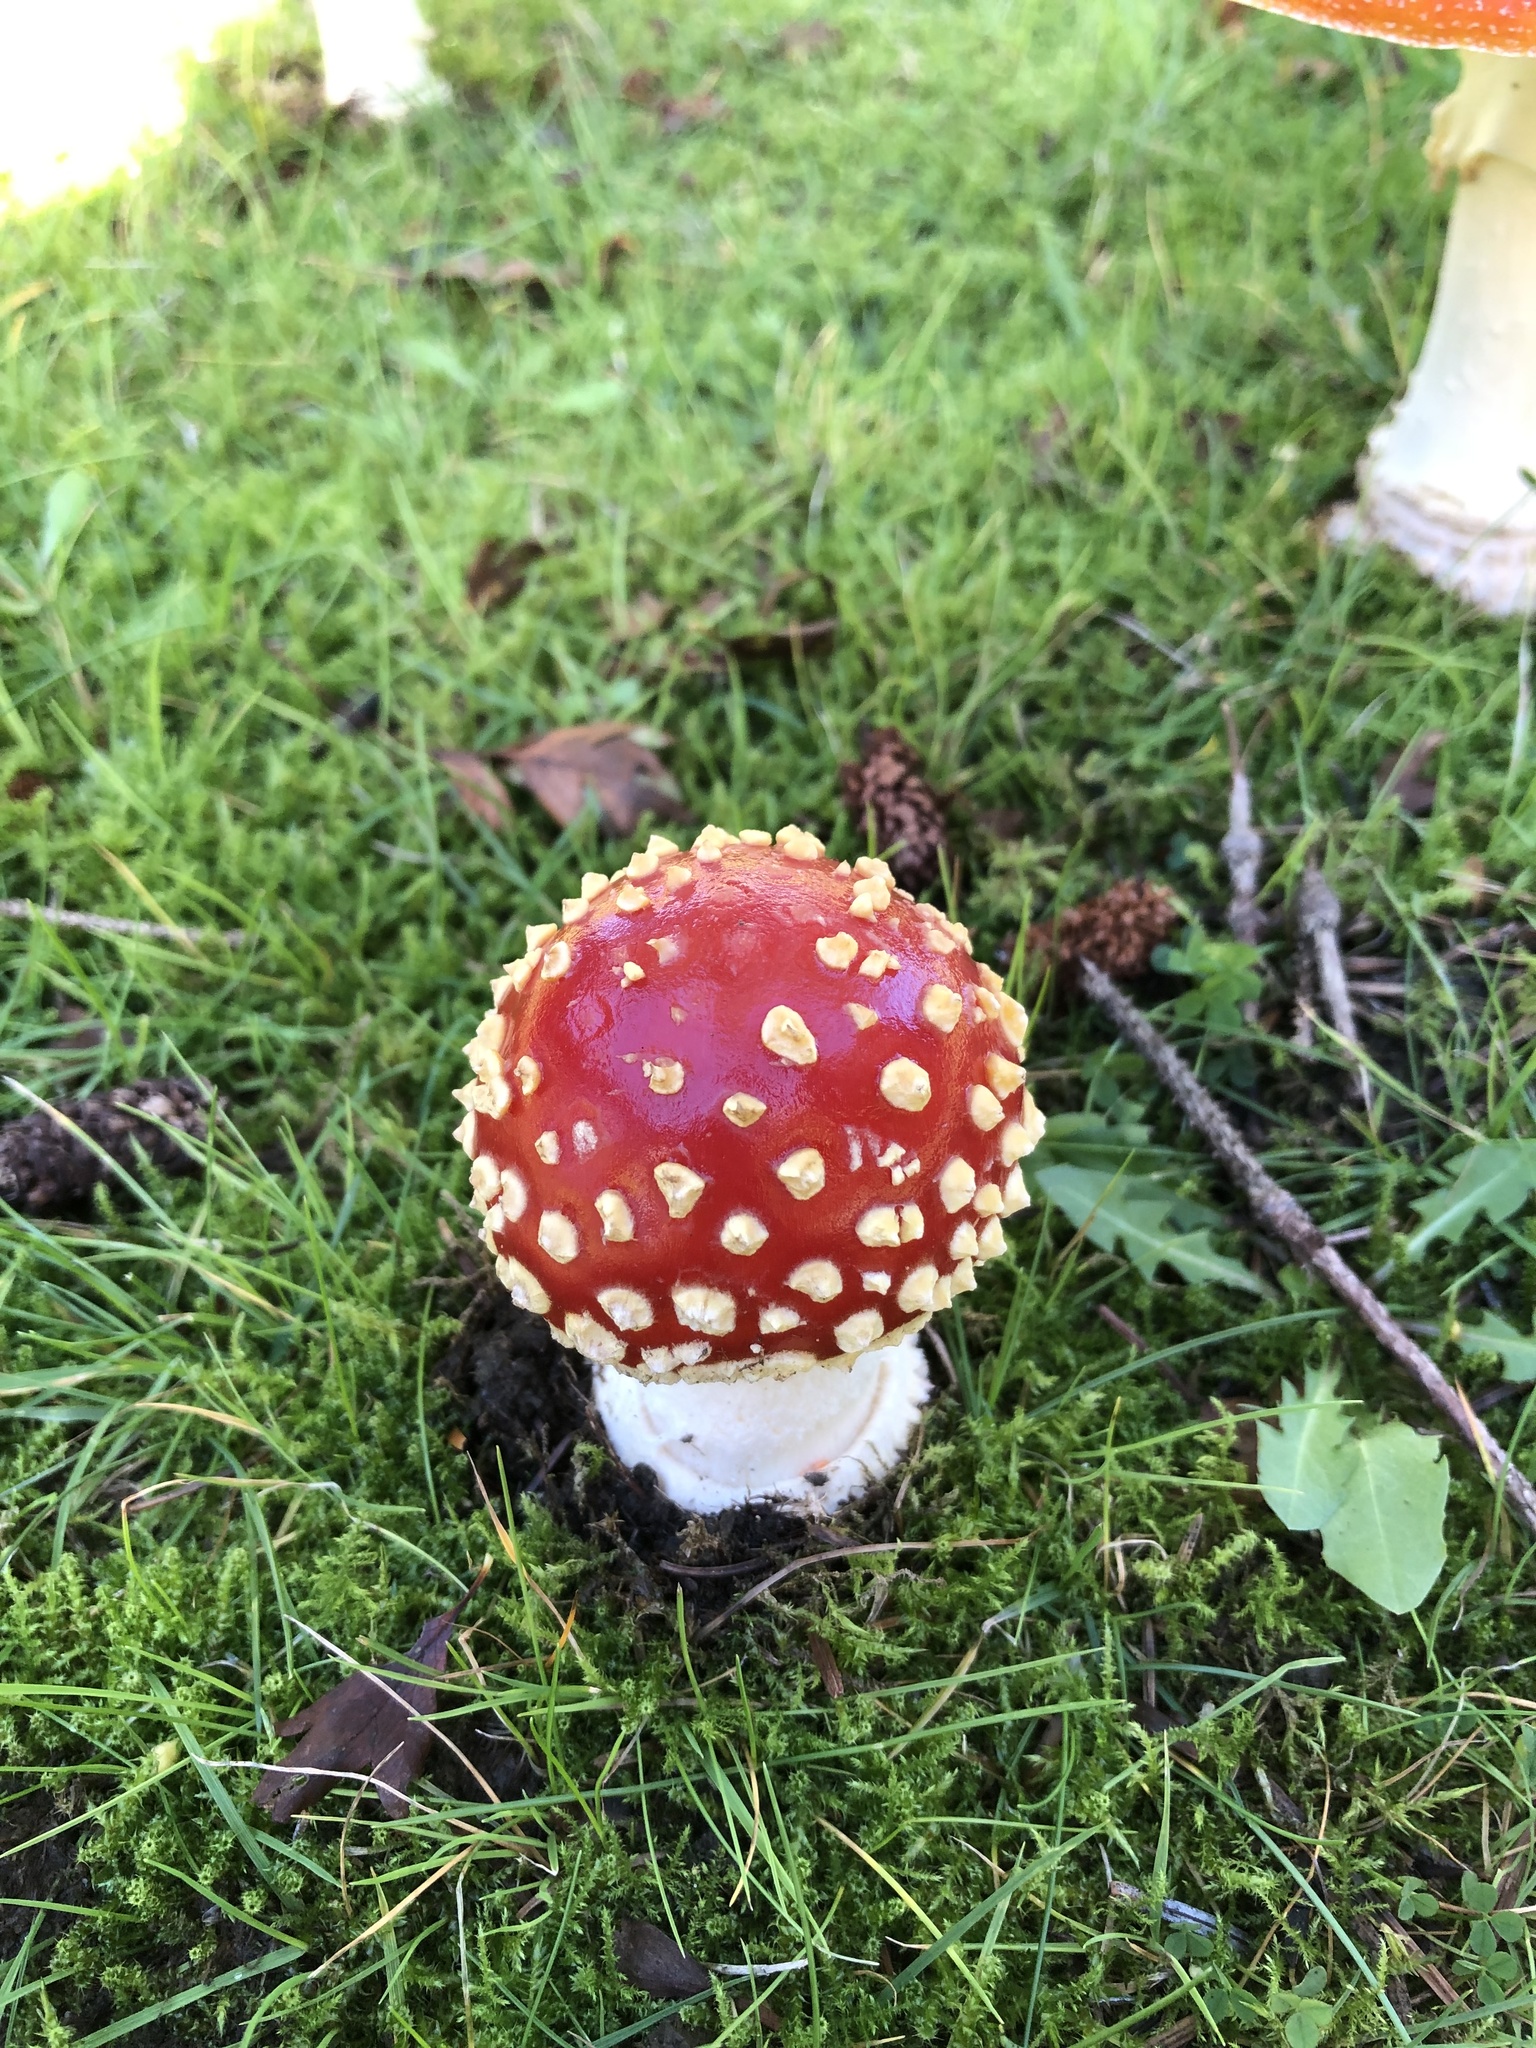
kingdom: Fungi
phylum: Basidiomycota
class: Agaricomycetes
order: Agaricales
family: Amanitaceae
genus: Amanita
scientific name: Amanita muscaria
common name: Fly agaric
